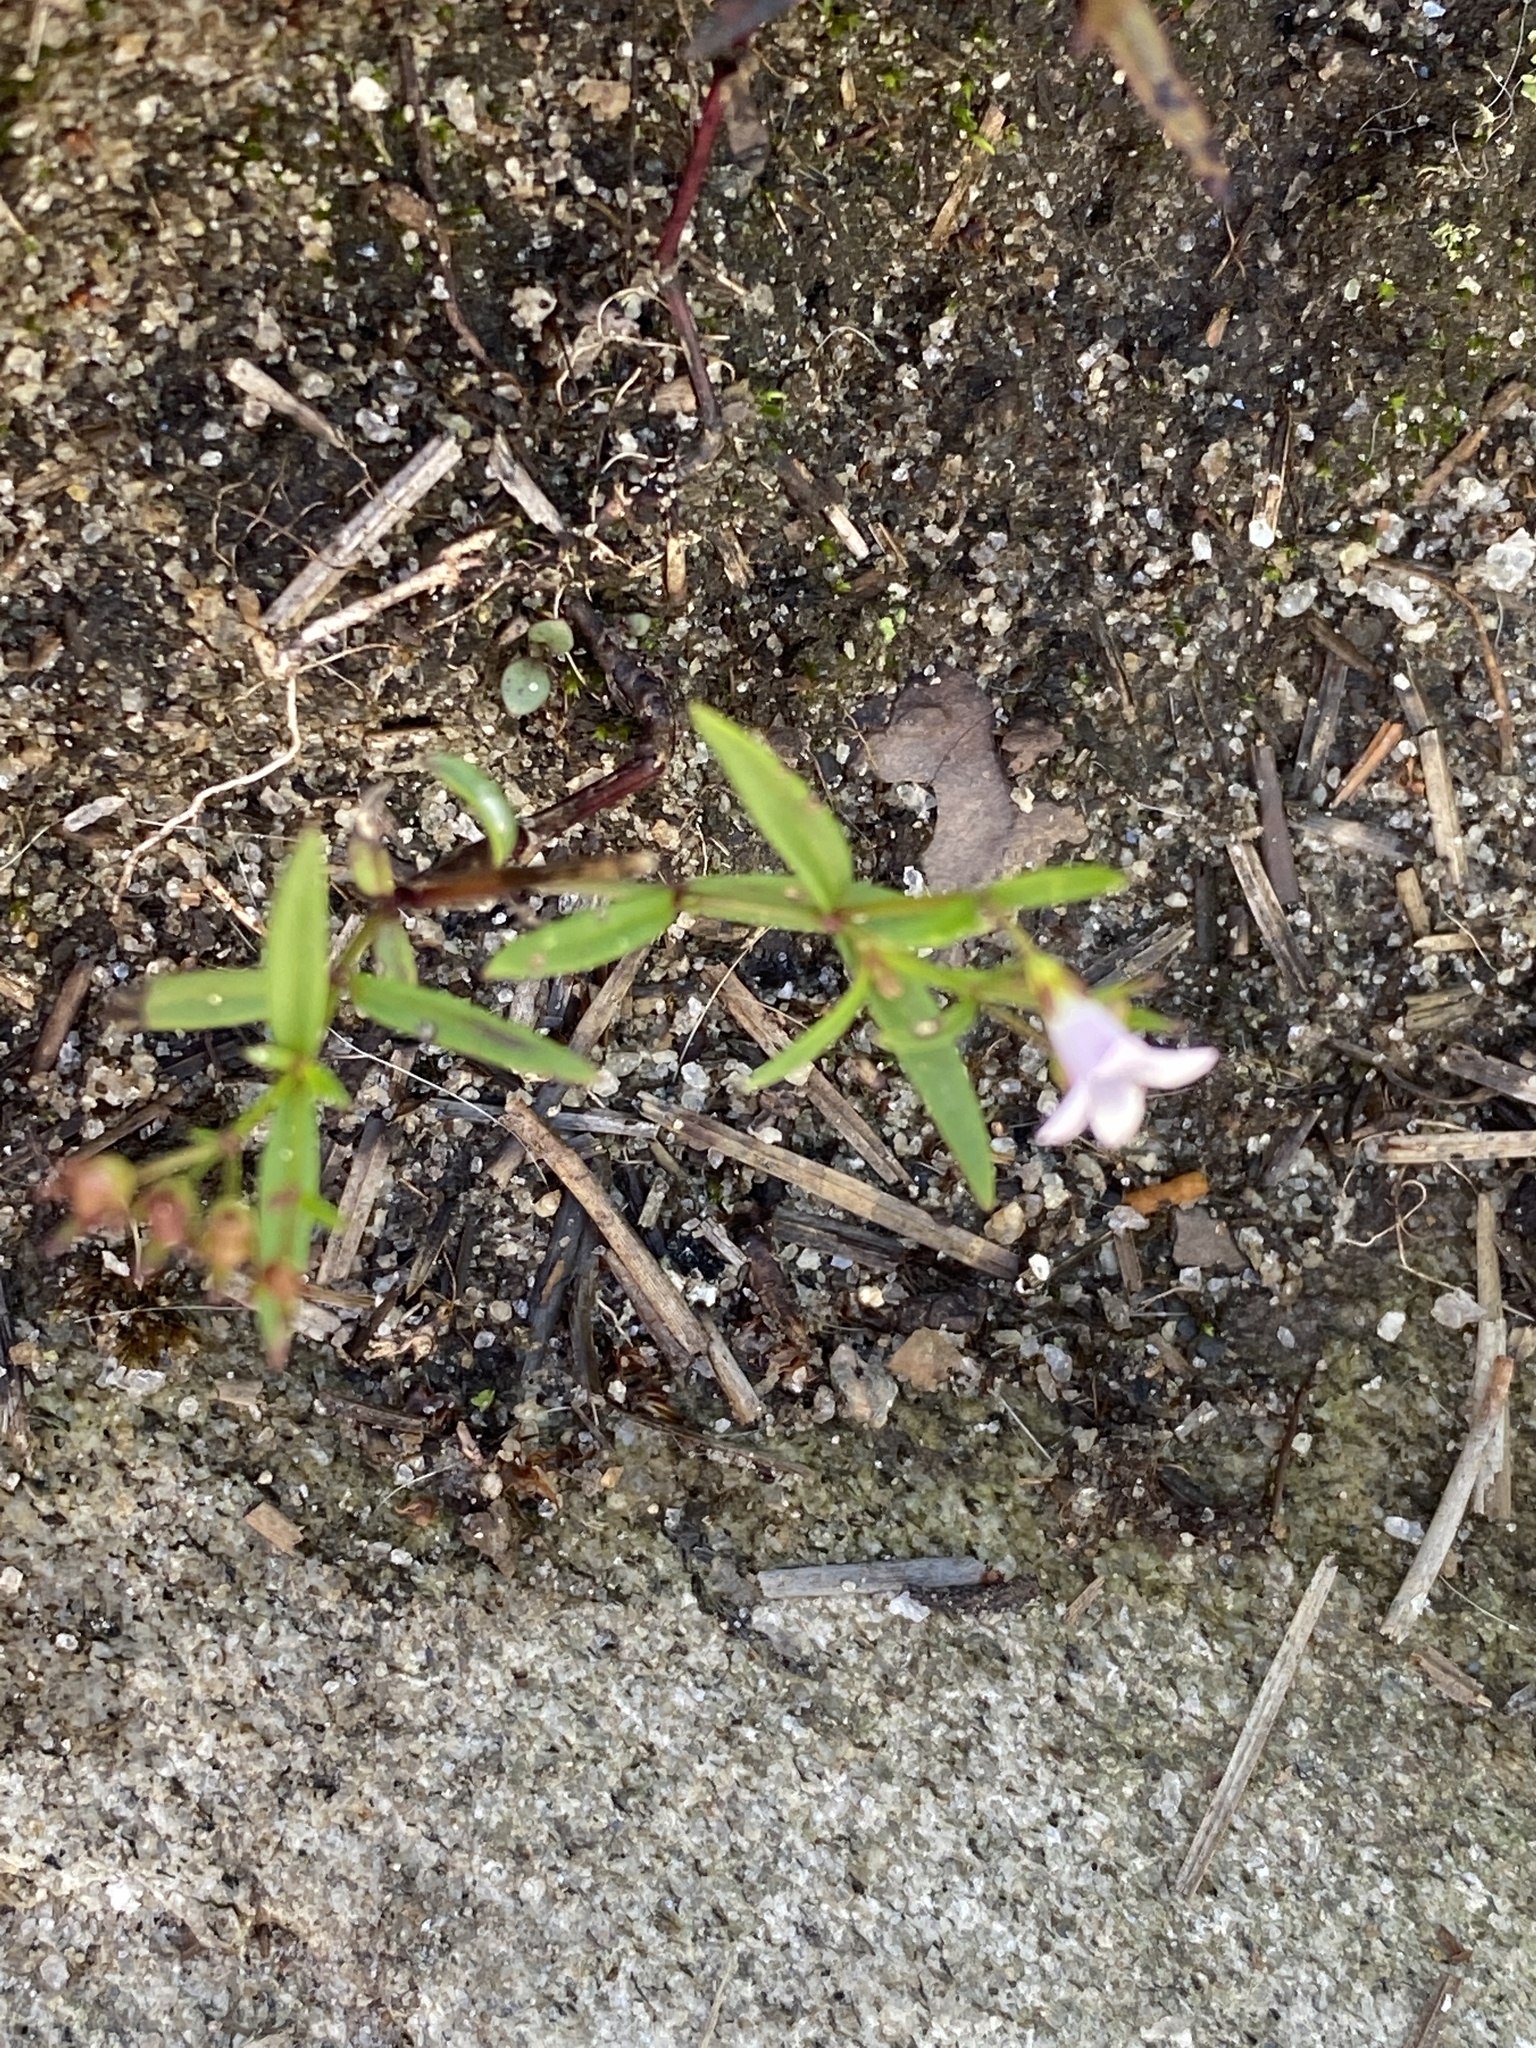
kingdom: Plantae
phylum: Tracheophyta
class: Magnoliopsida
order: Gentianales
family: Rubiaceae
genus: Houstonia
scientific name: Houstonia longifolia
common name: Long-leaved bluets
